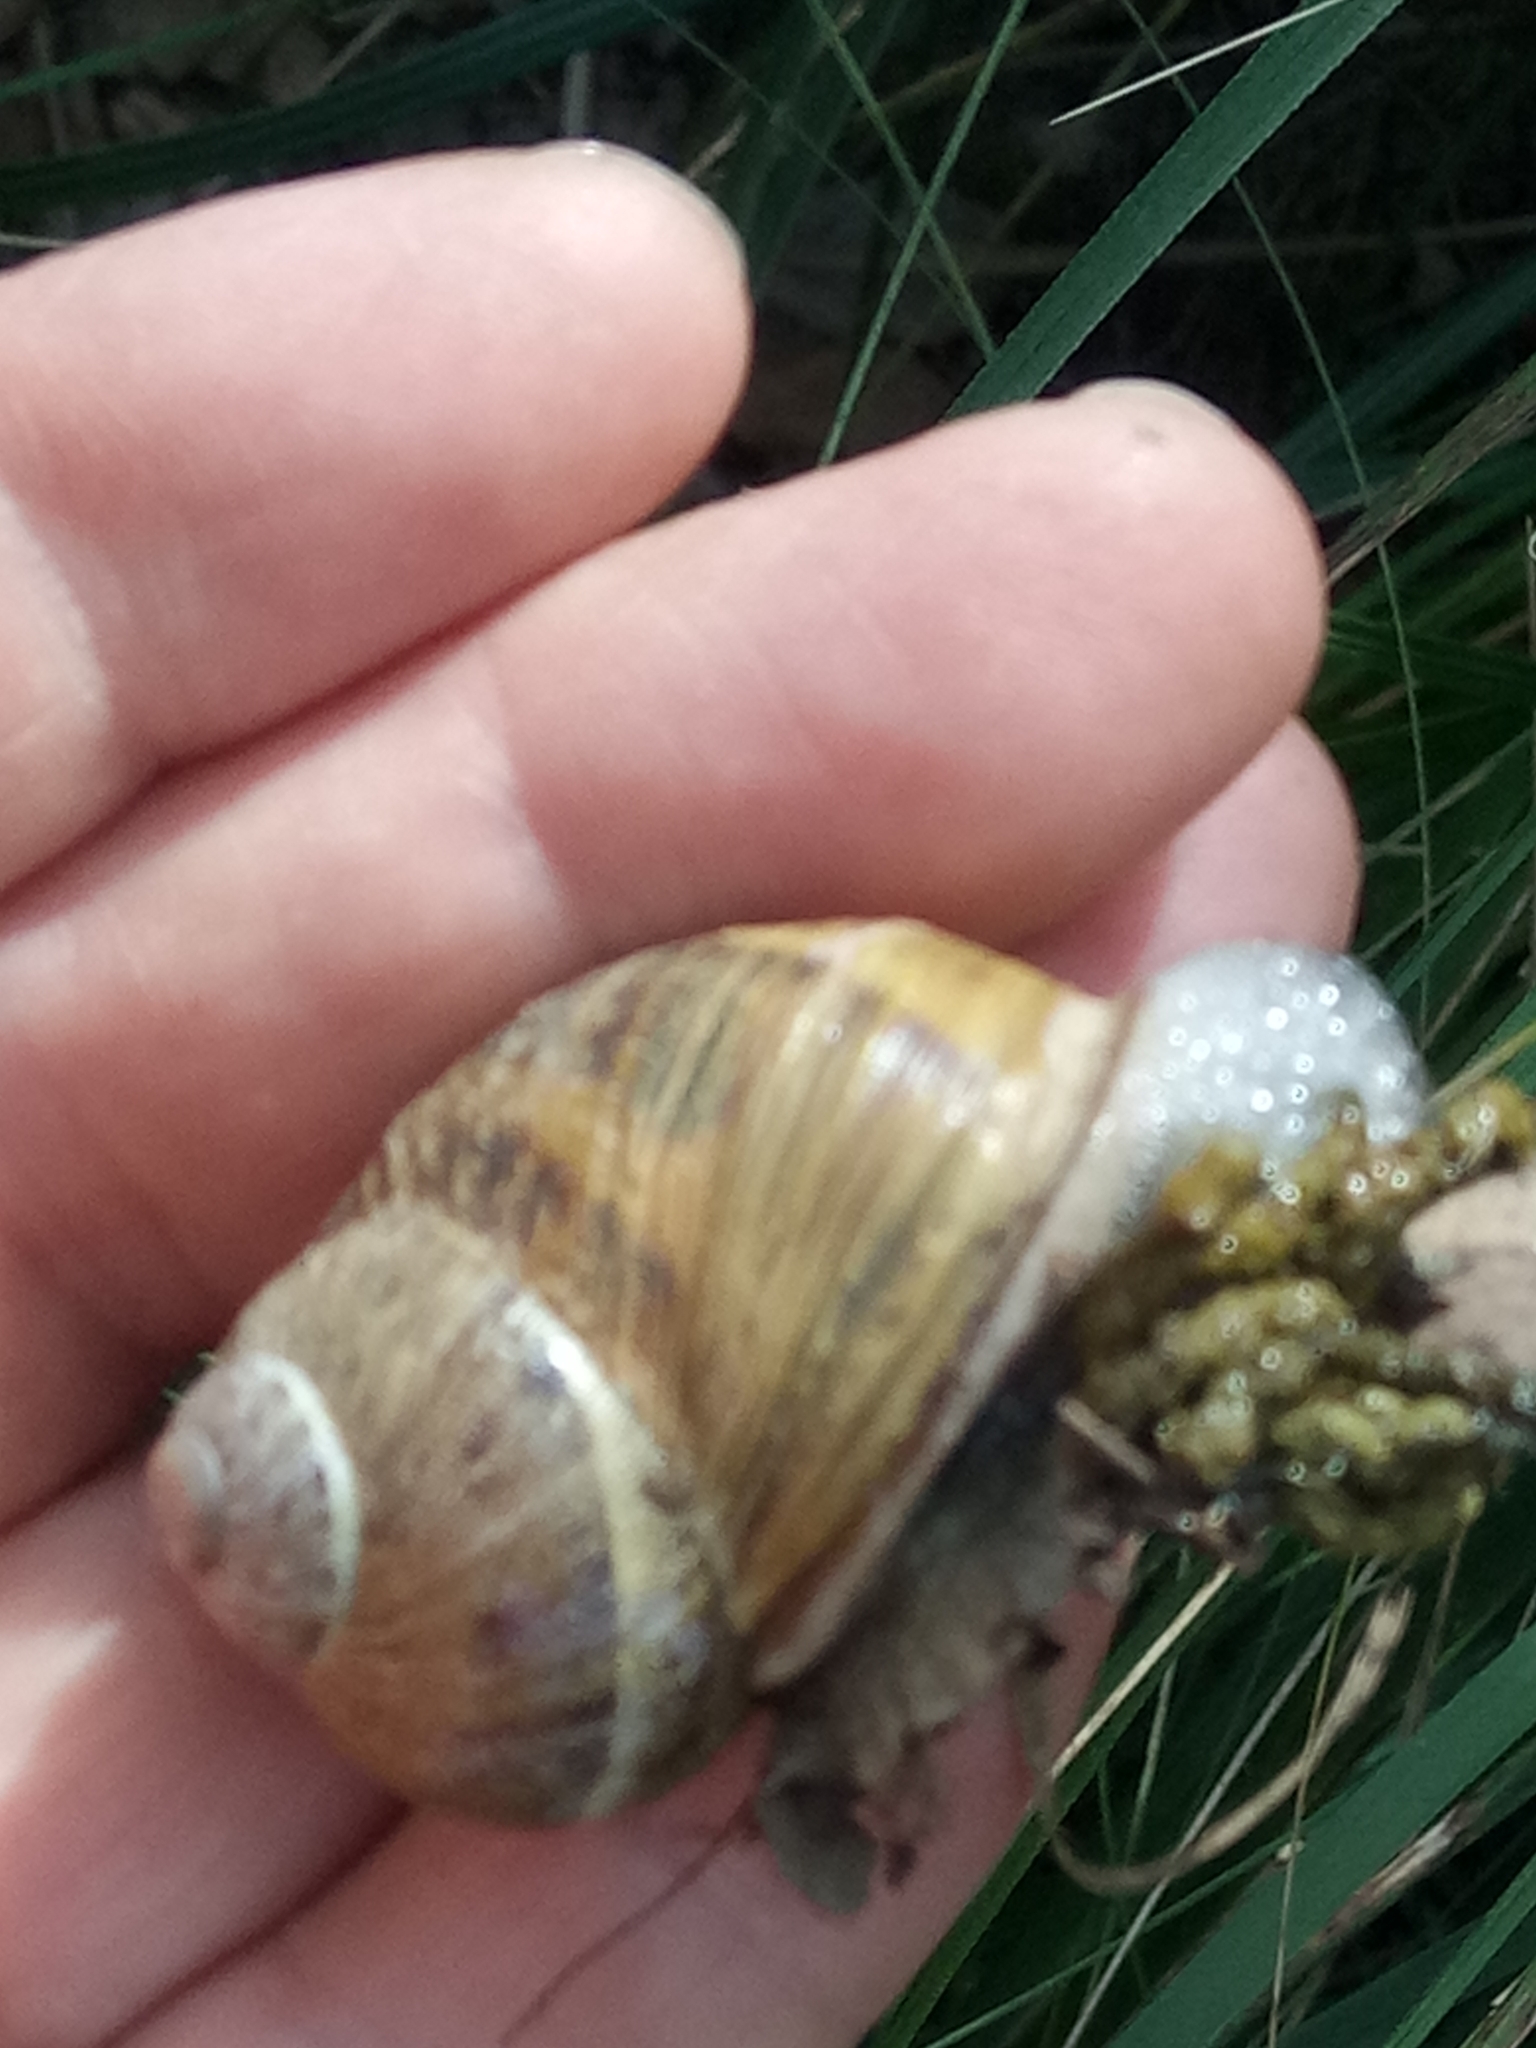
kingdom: Animalia
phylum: Mollusca
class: Gastropoda
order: Stylommatophora
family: Helicidae
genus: Cornu
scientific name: Cornu aspersum
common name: Brown garden snail
